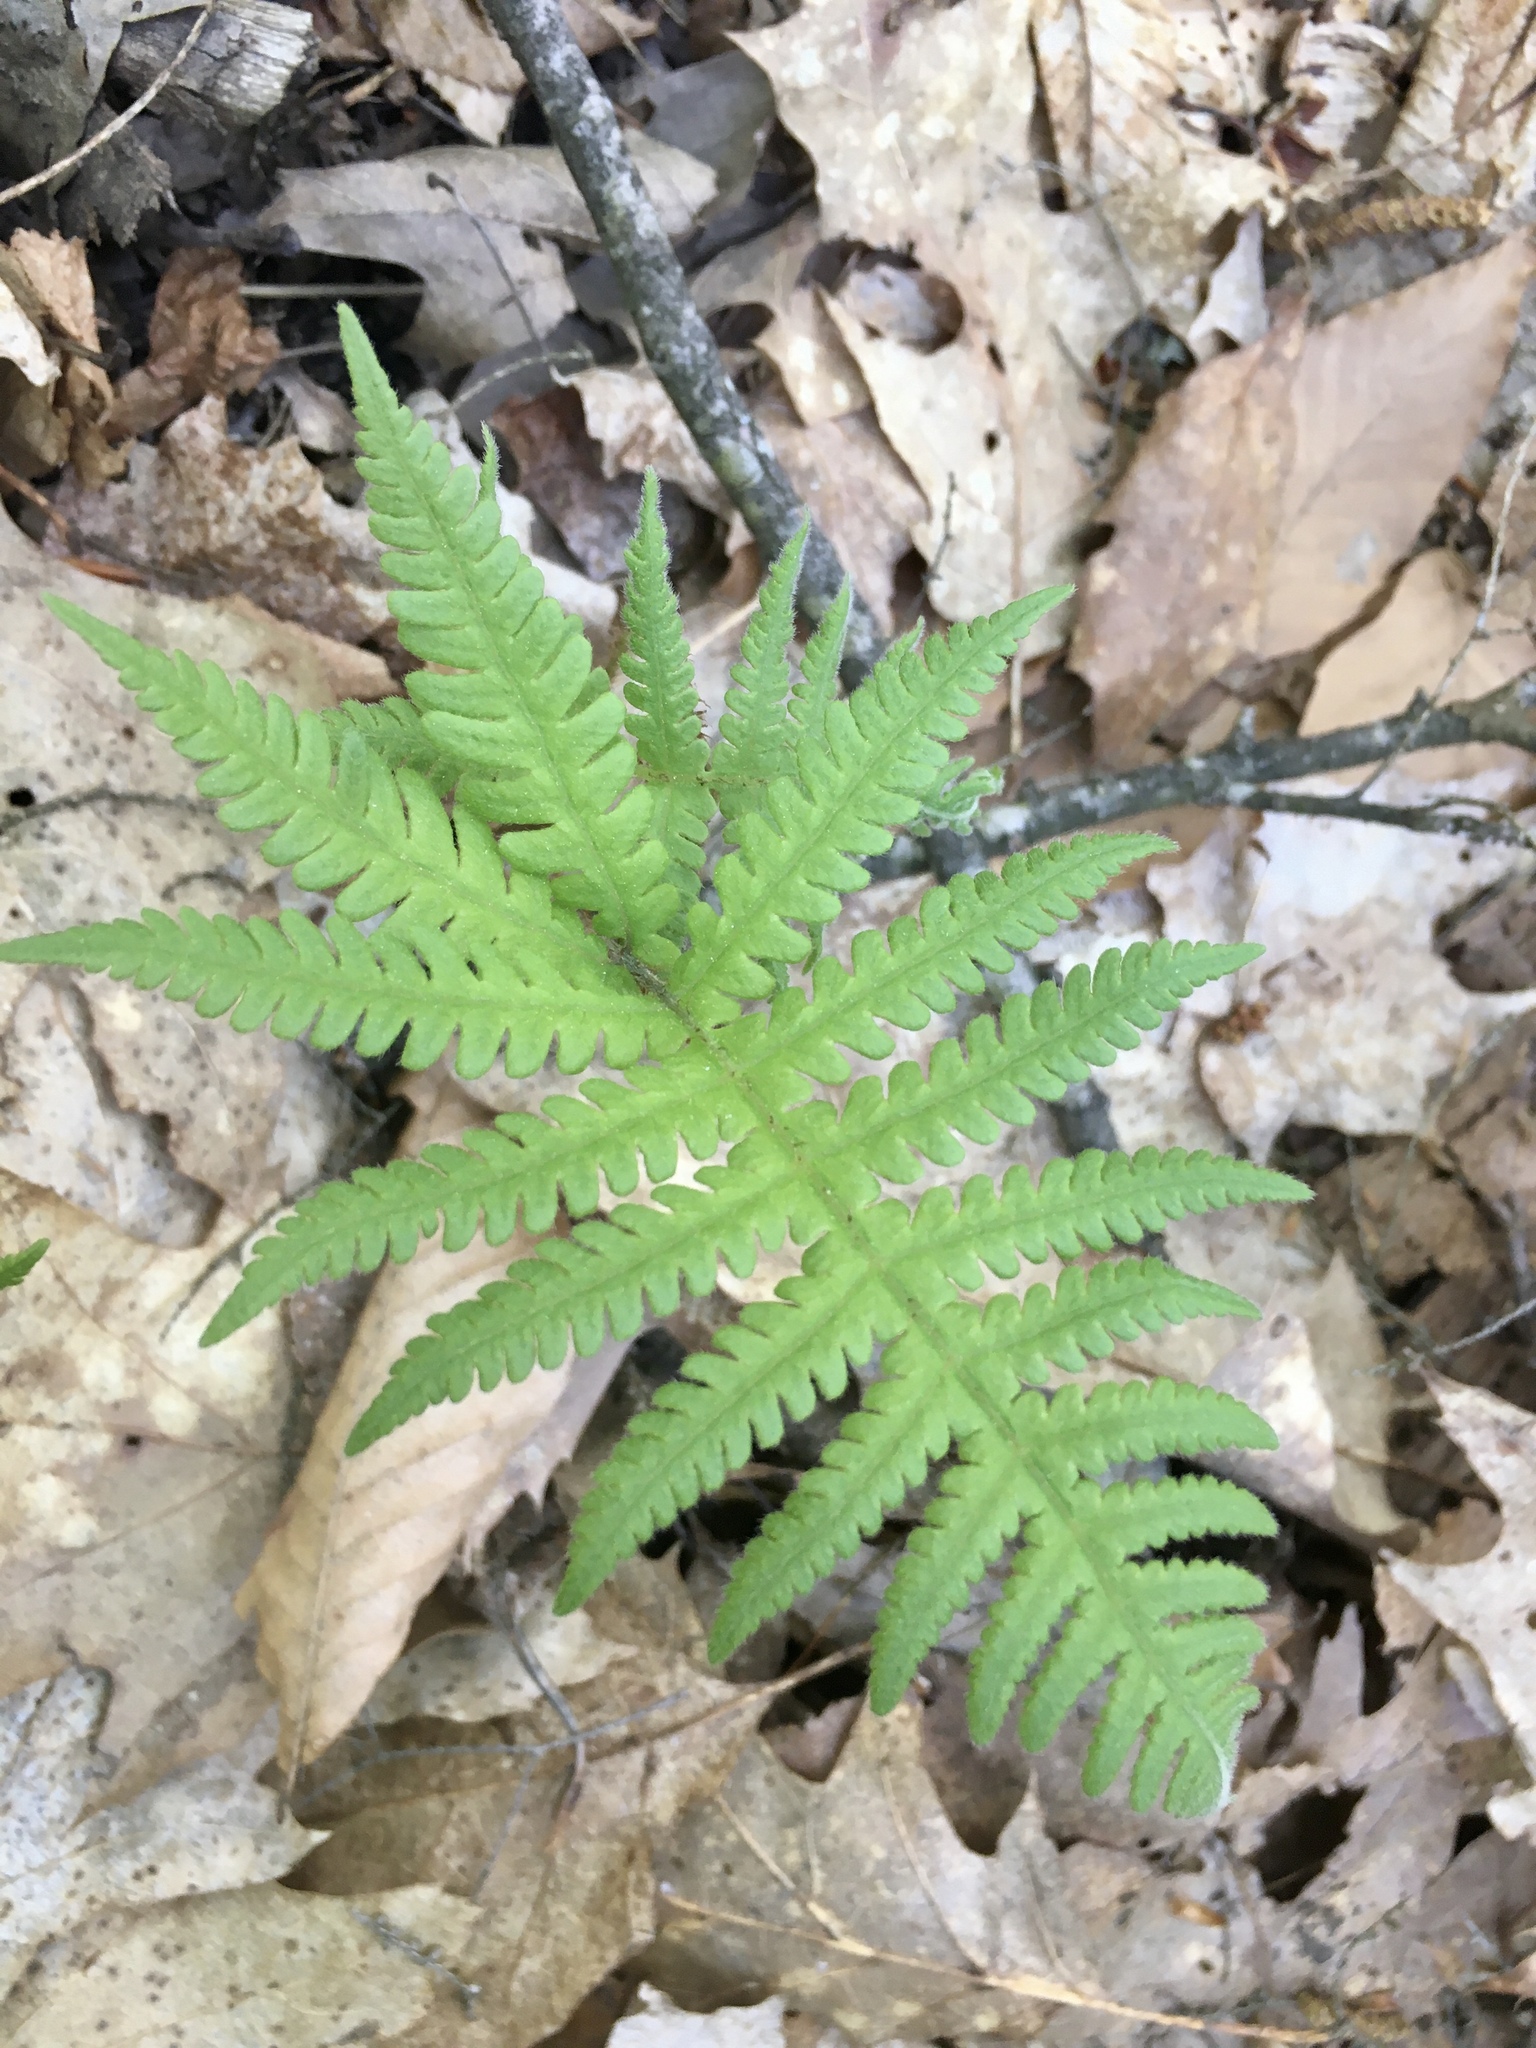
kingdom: Plantae
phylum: Tracheophyta
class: Polypodiopsida
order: Polypodiales
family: Thelypteridaceae
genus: Phegopteris
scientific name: Phegopteris connectilis
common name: Beech fern
